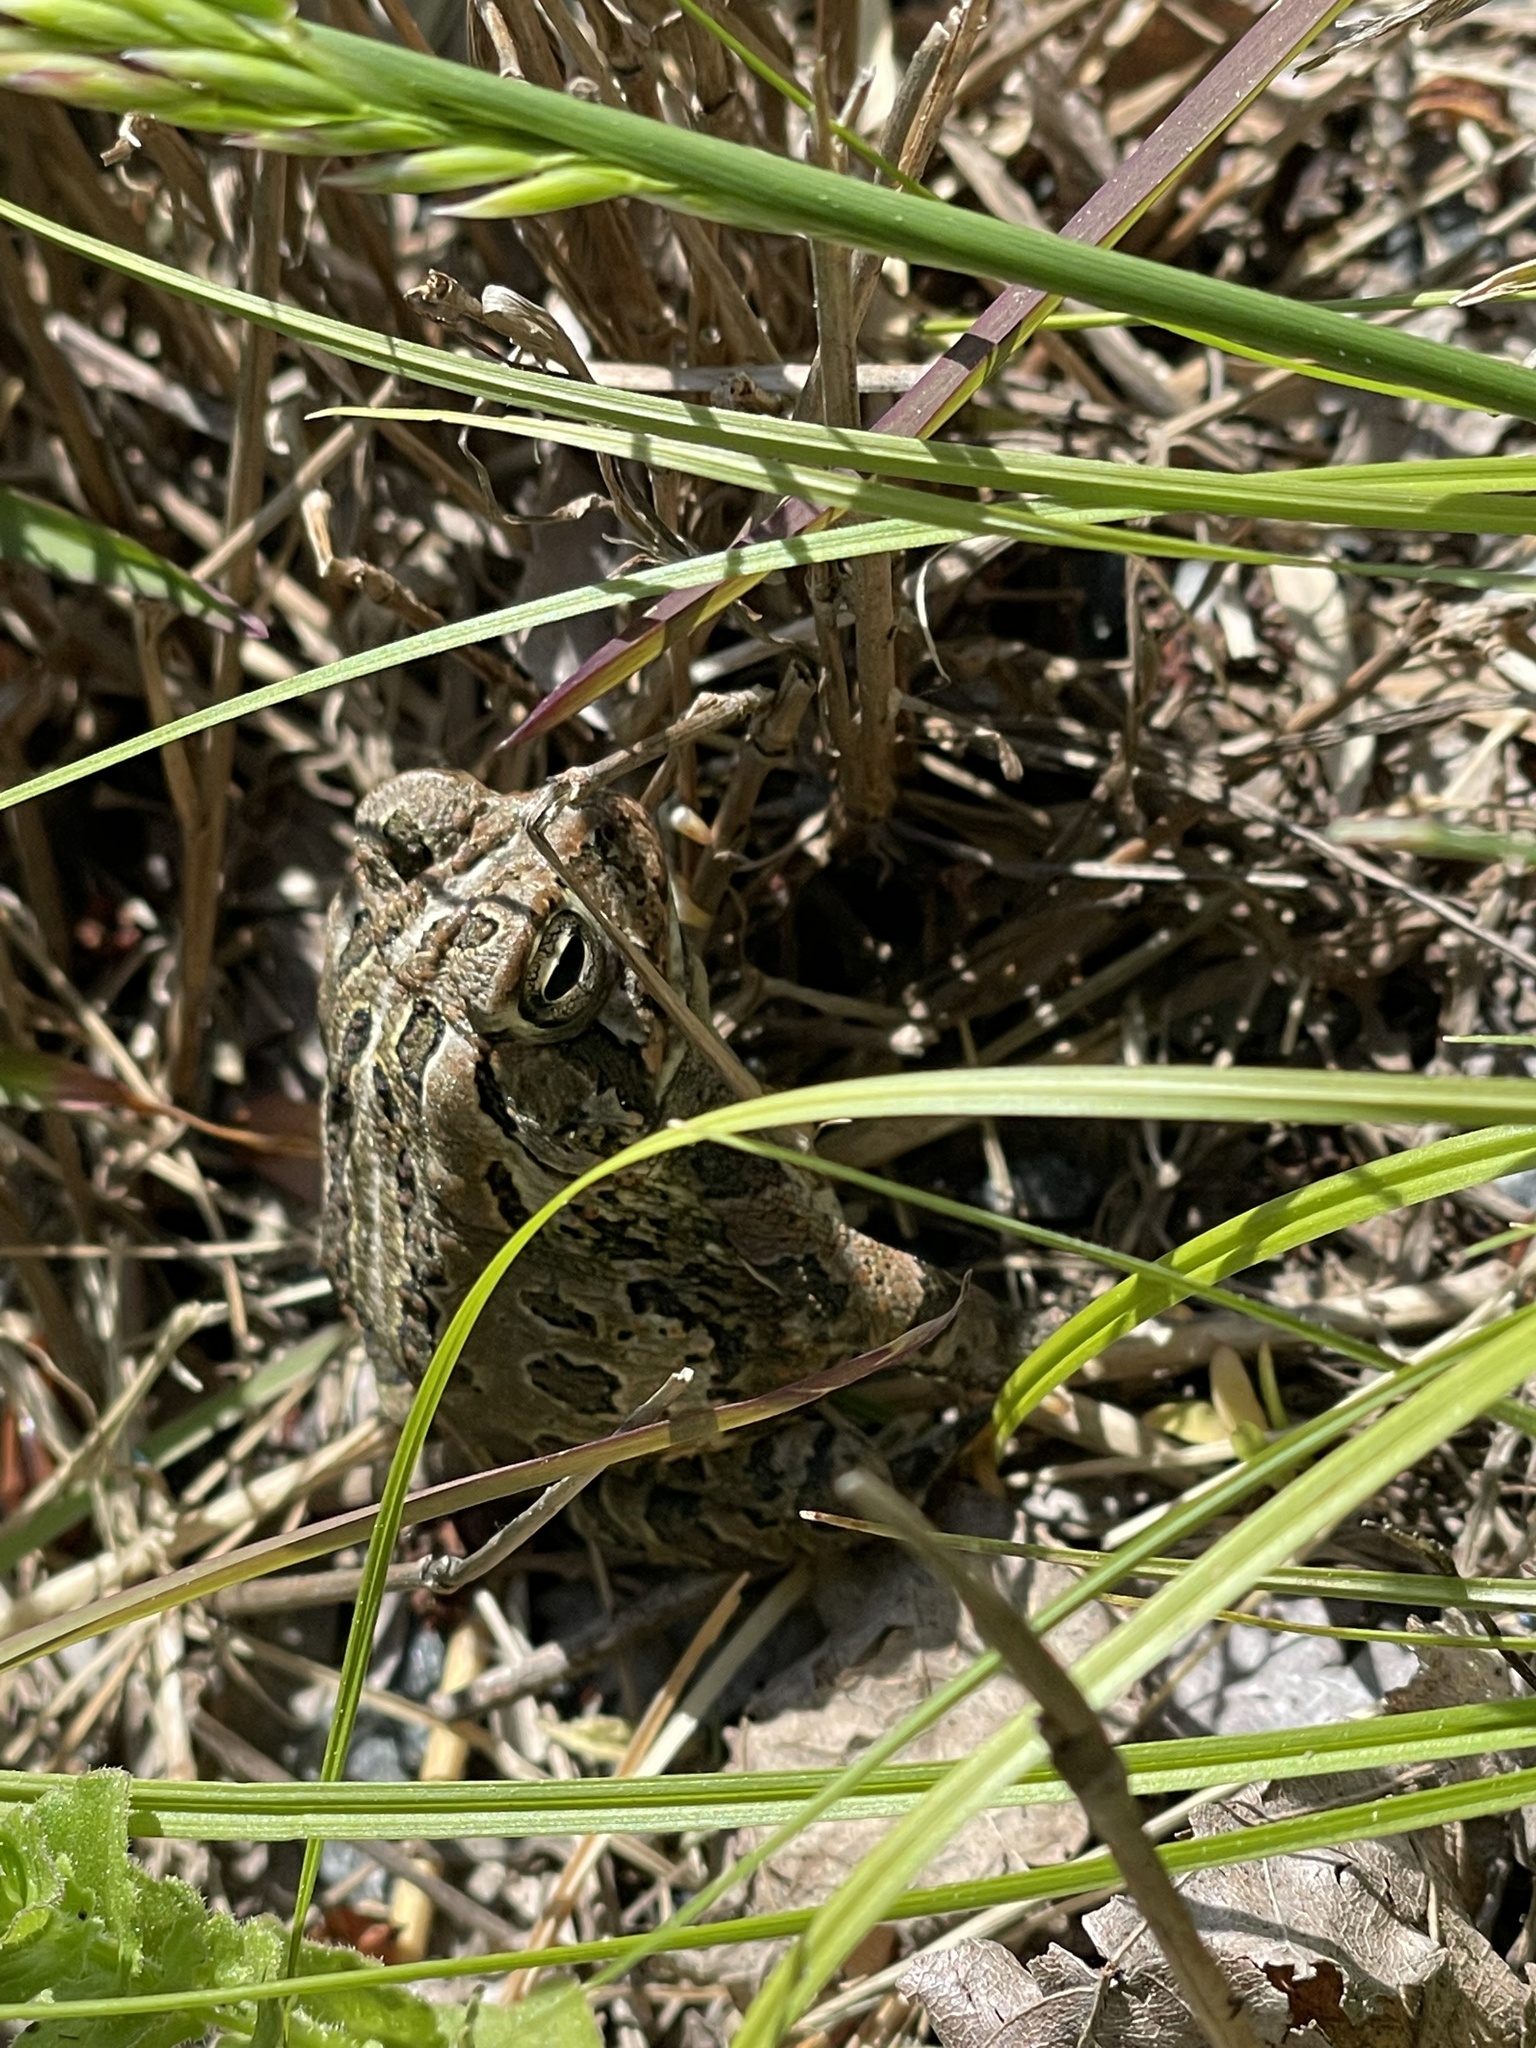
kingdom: Animalia
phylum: Chordata
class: Amphibia
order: Anura
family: Bufonidae
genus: Anaxyrus
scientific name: Anaxyrus fowleri
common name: Fowler's toad
